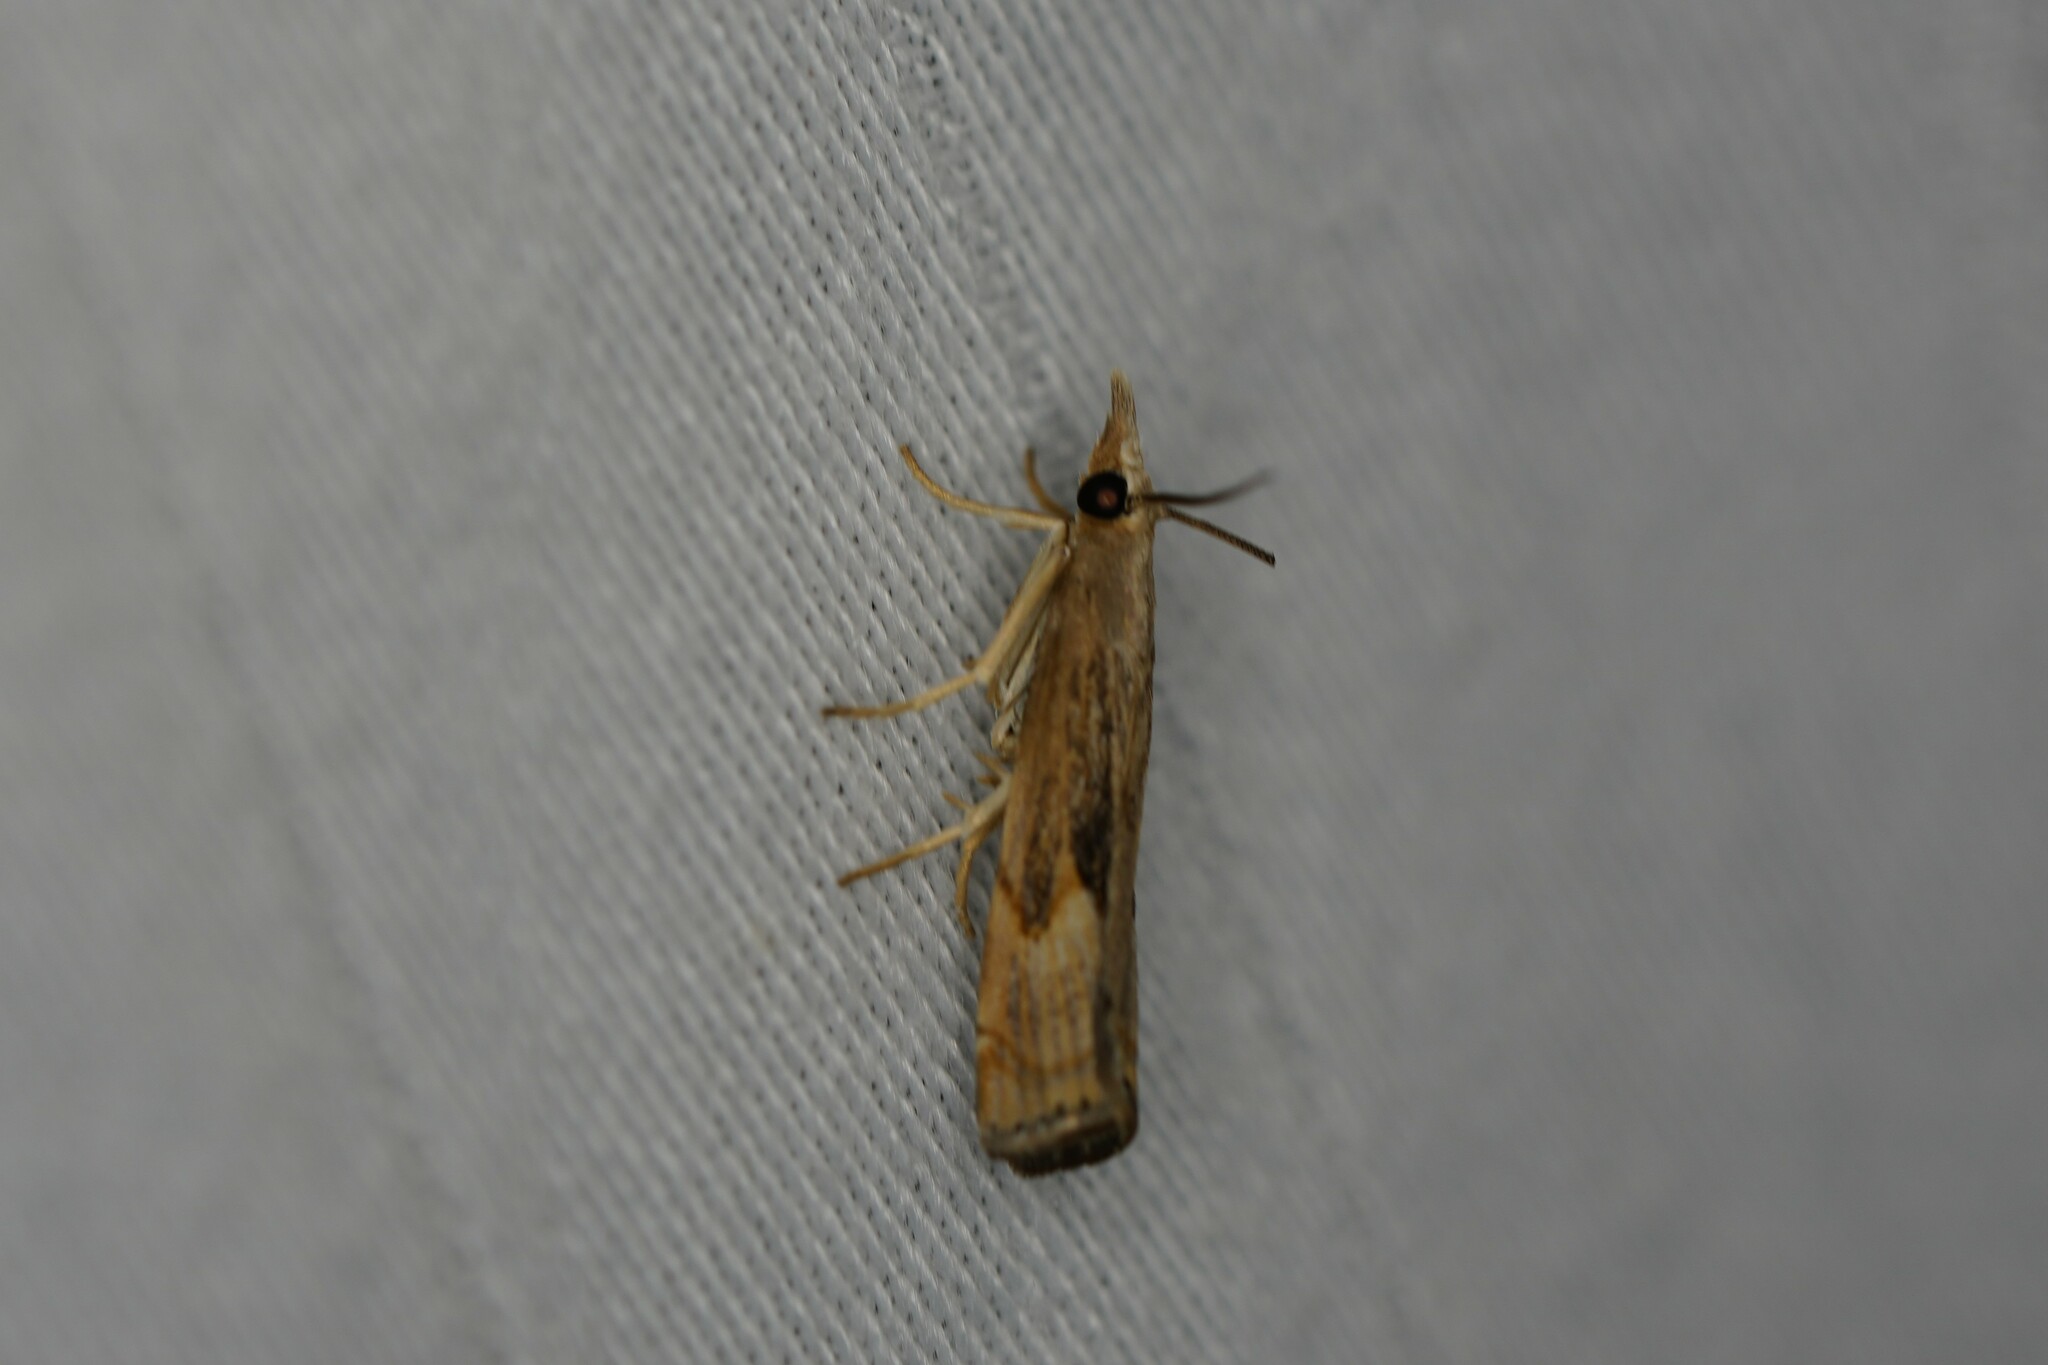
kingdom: Animalia
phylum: Arthropoda
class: Insecta
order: Lepidoptera
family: Crambidae
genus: Parapediasia
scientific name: Parapediasia teterellus
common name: Bluegrass webworm moth
